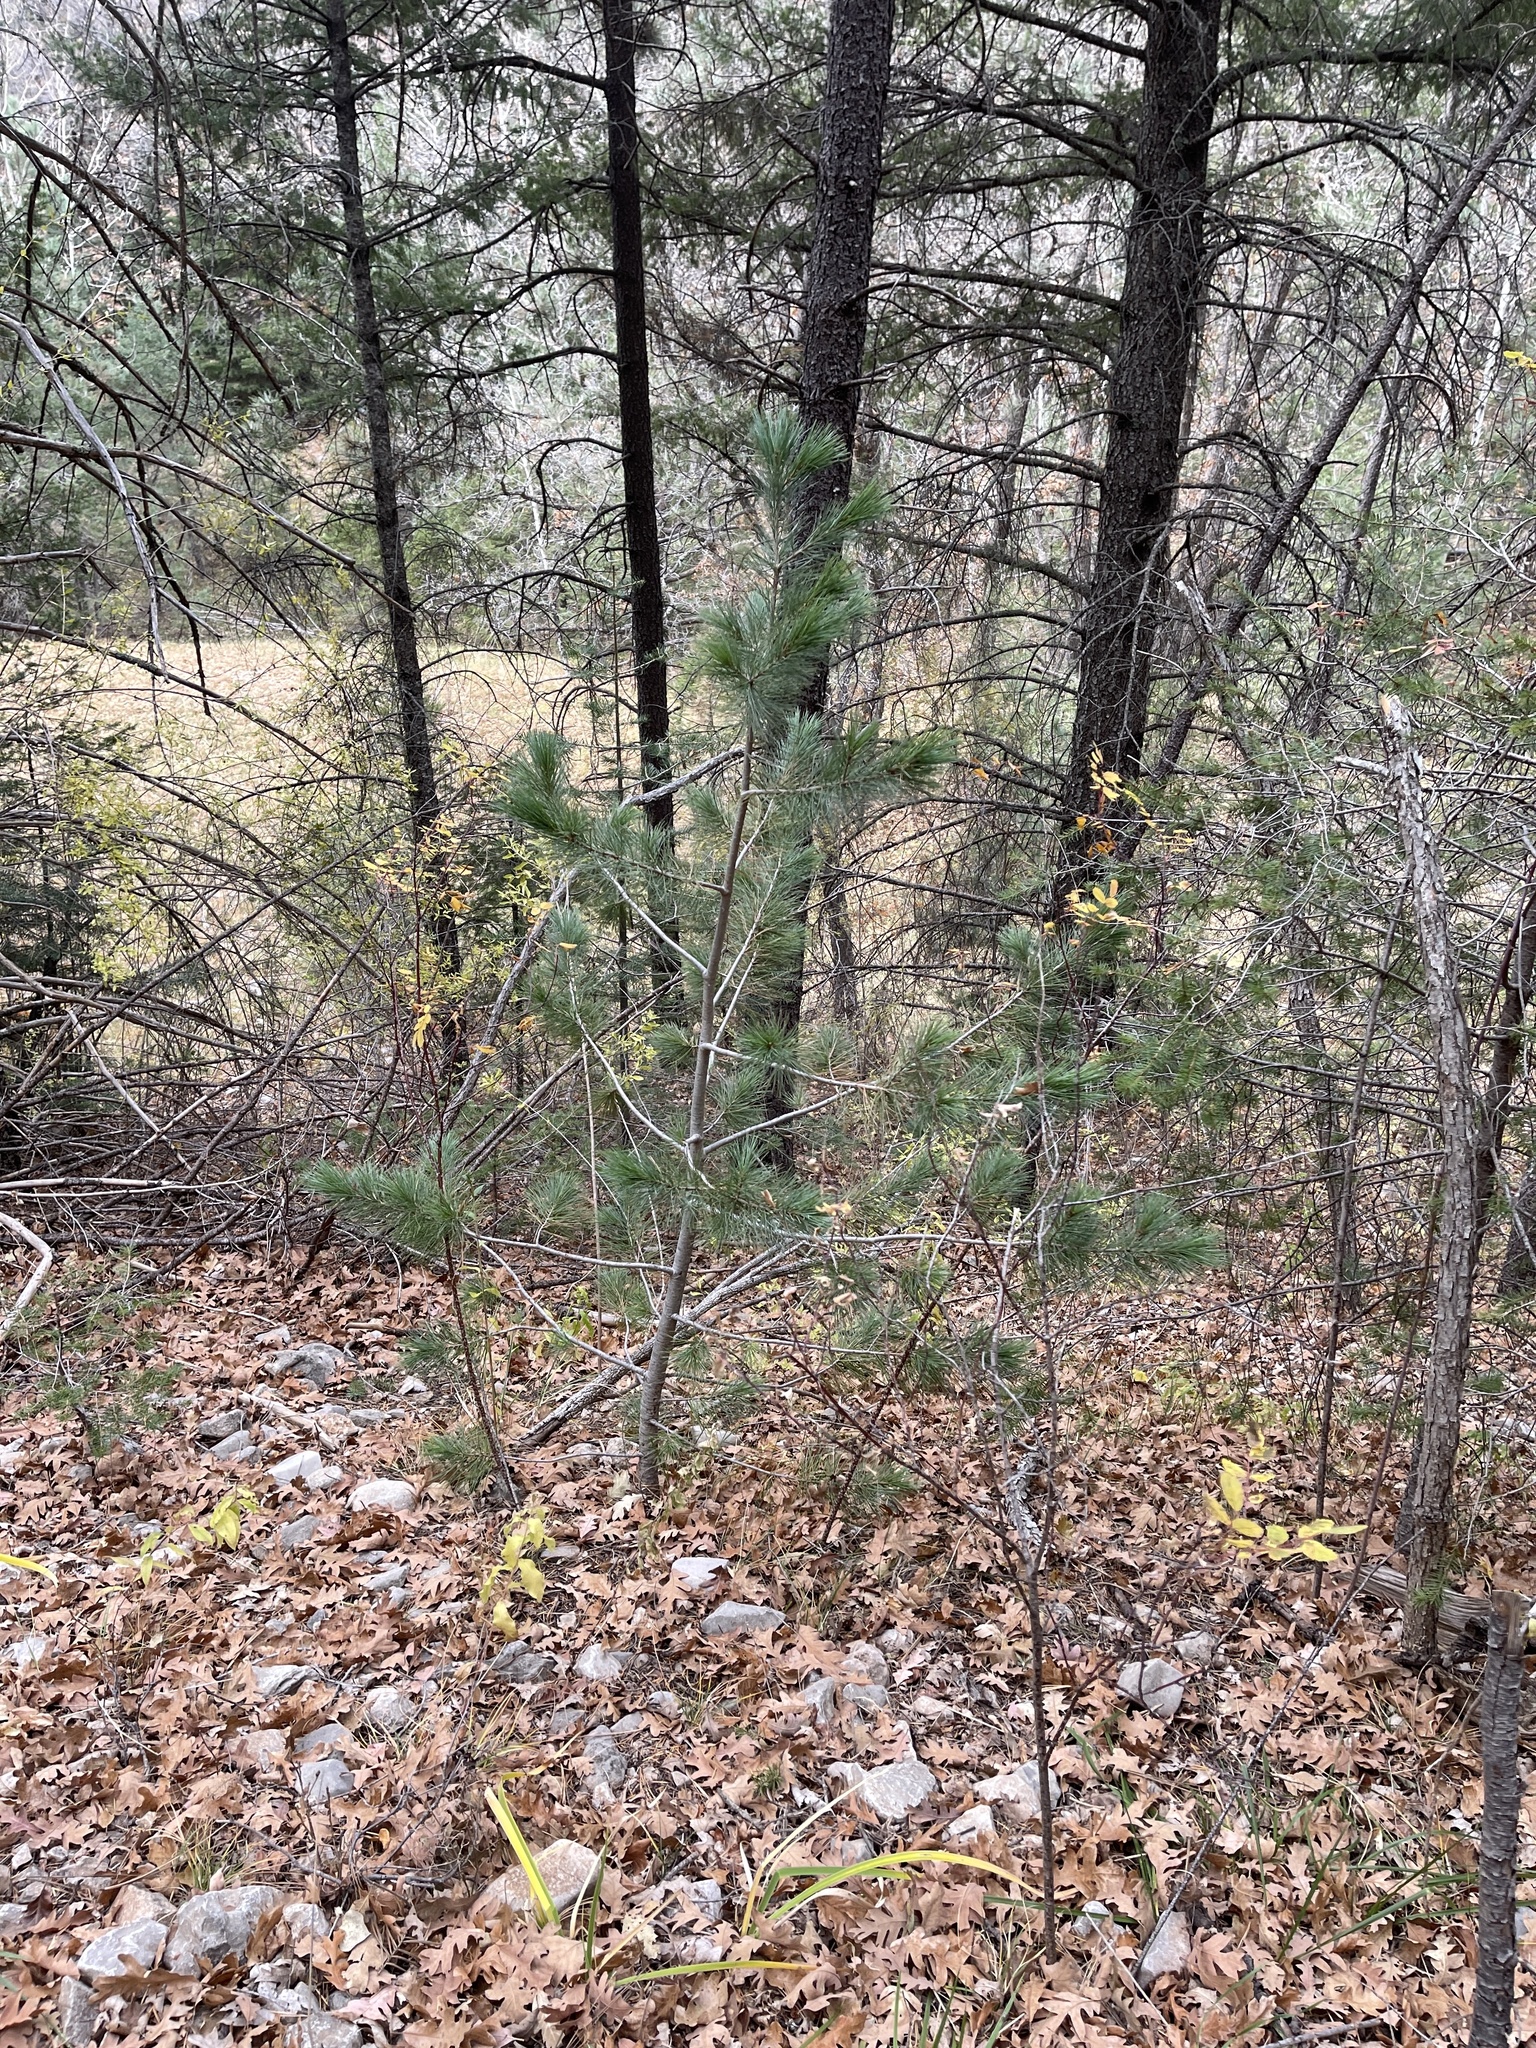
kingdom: Plantae
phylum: Tracheophyta
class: Pinopsida
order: Pinales
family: Pinaceae
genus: Pinus
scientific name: Pinus strobiformis
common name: Southwestern white pine
